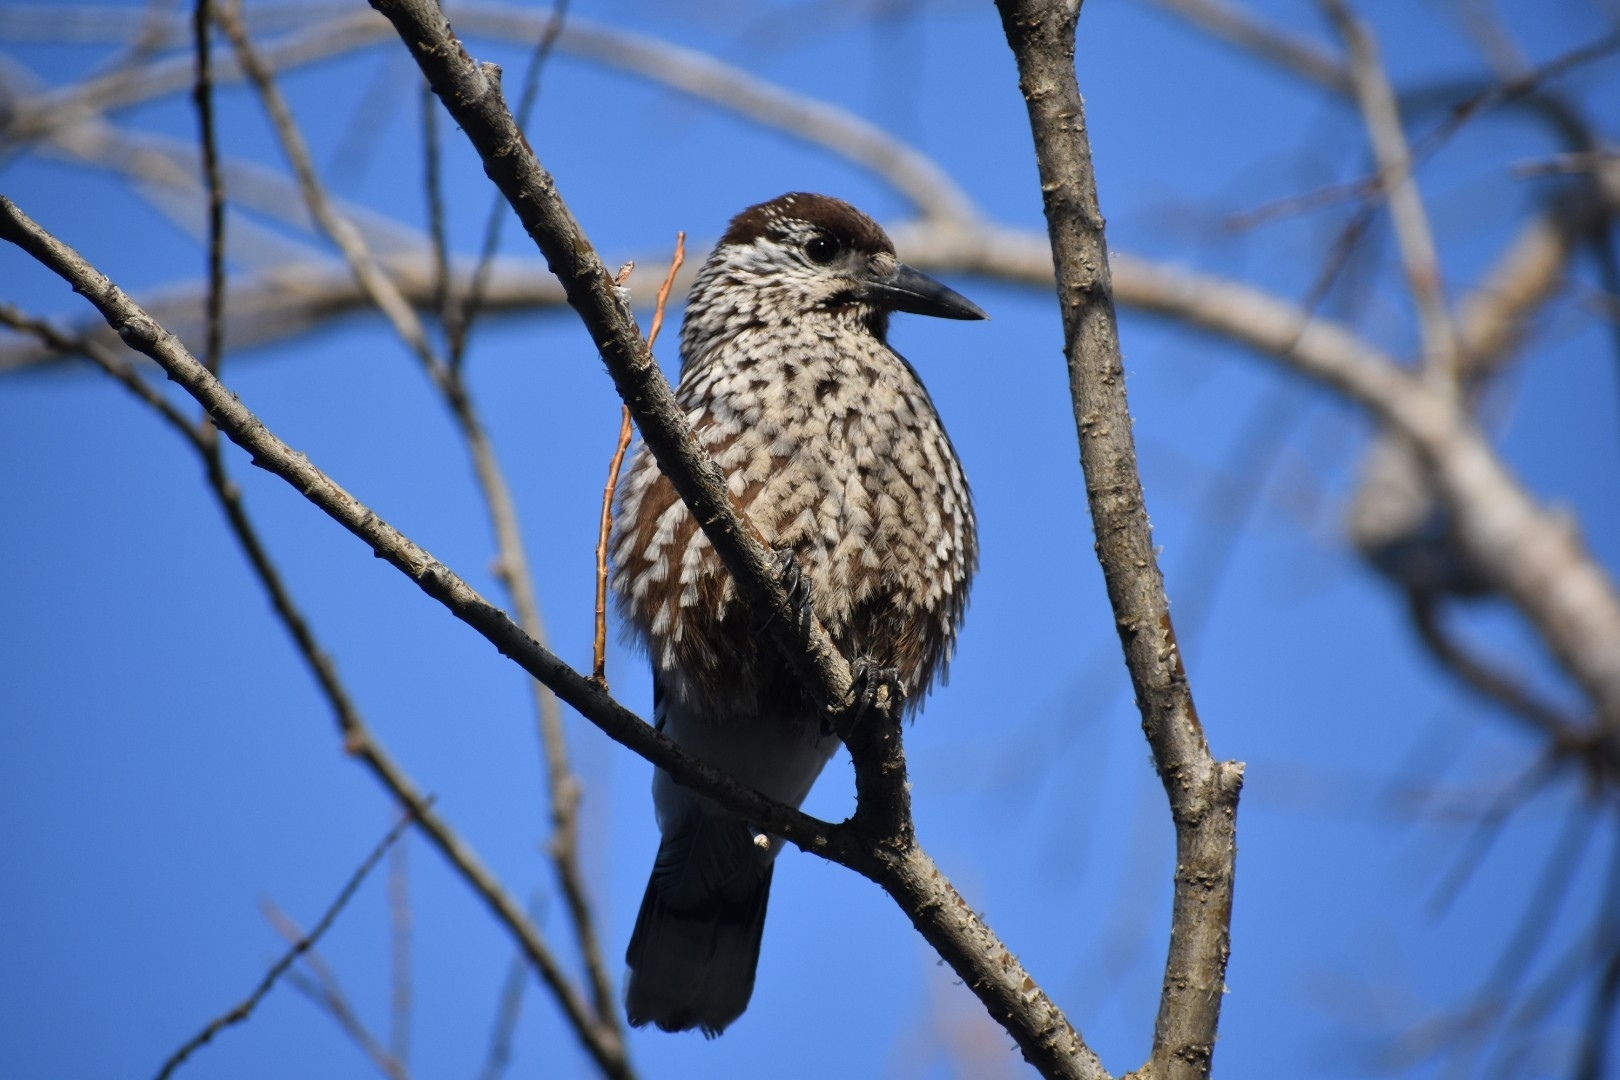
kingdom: Animalia
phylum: Chordata
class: Aves
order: Passeriformes
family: Corvidae
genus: Nucifraga
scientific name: Nucifraga caryocatactes
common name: Spotted nutcracker
